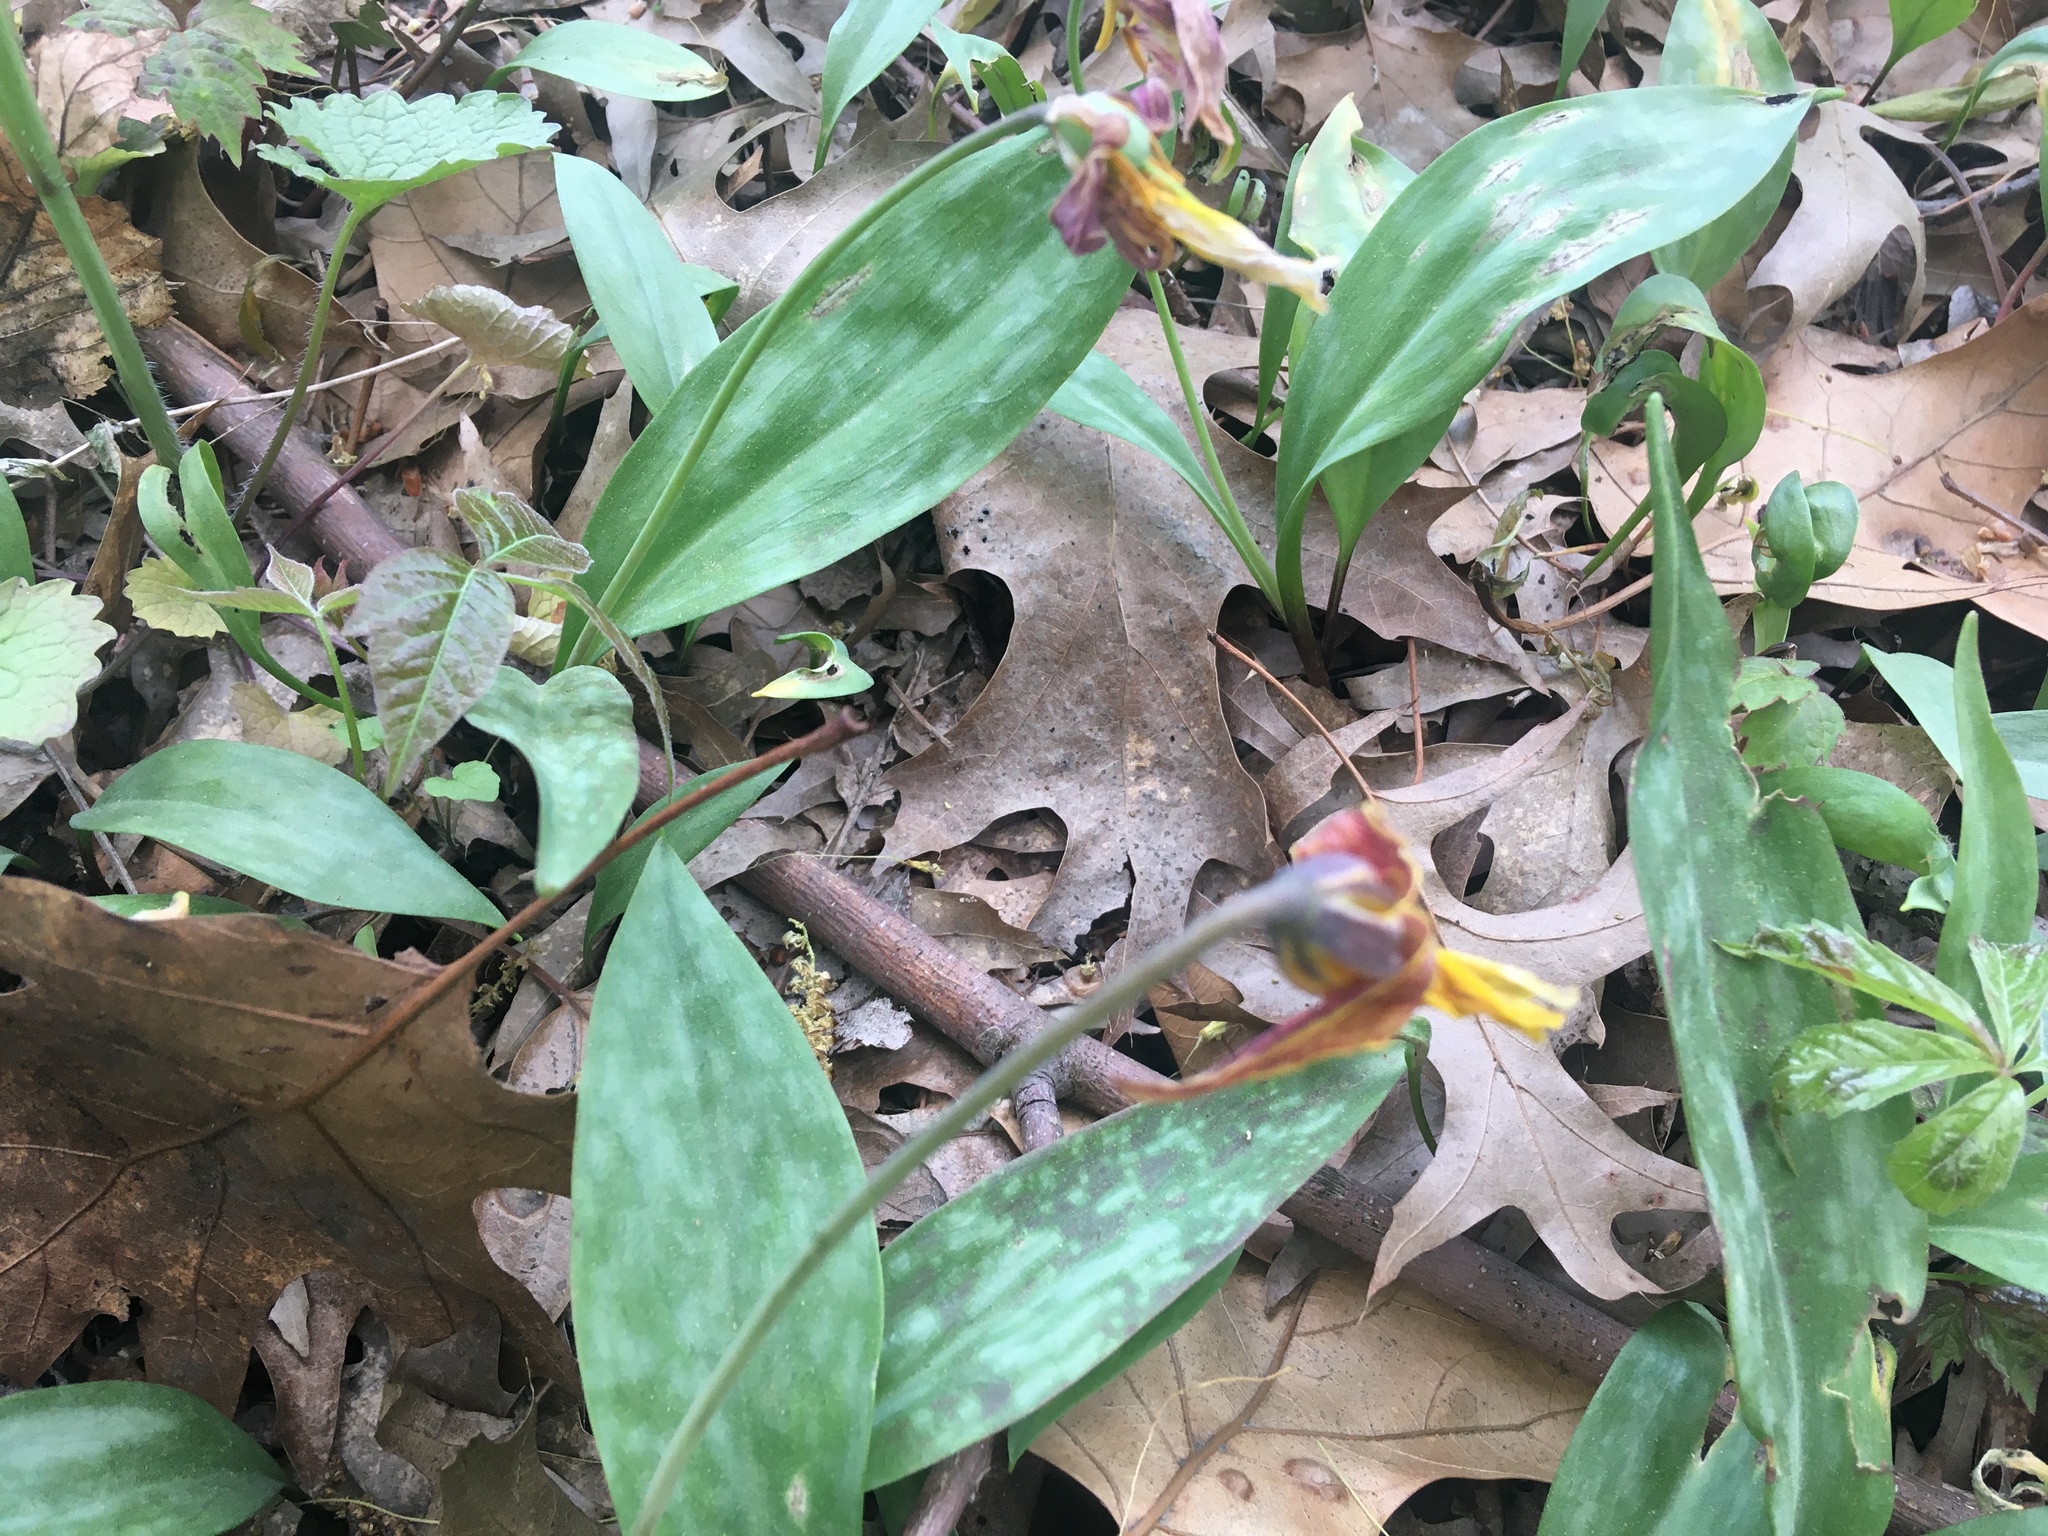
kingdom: Plantae
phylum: Tracheophyta
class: Liliopsida
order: Liliales
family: Liliaceae
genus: Erythronium
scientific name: Erythronium americanum
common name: Yellow adder's-tongue
